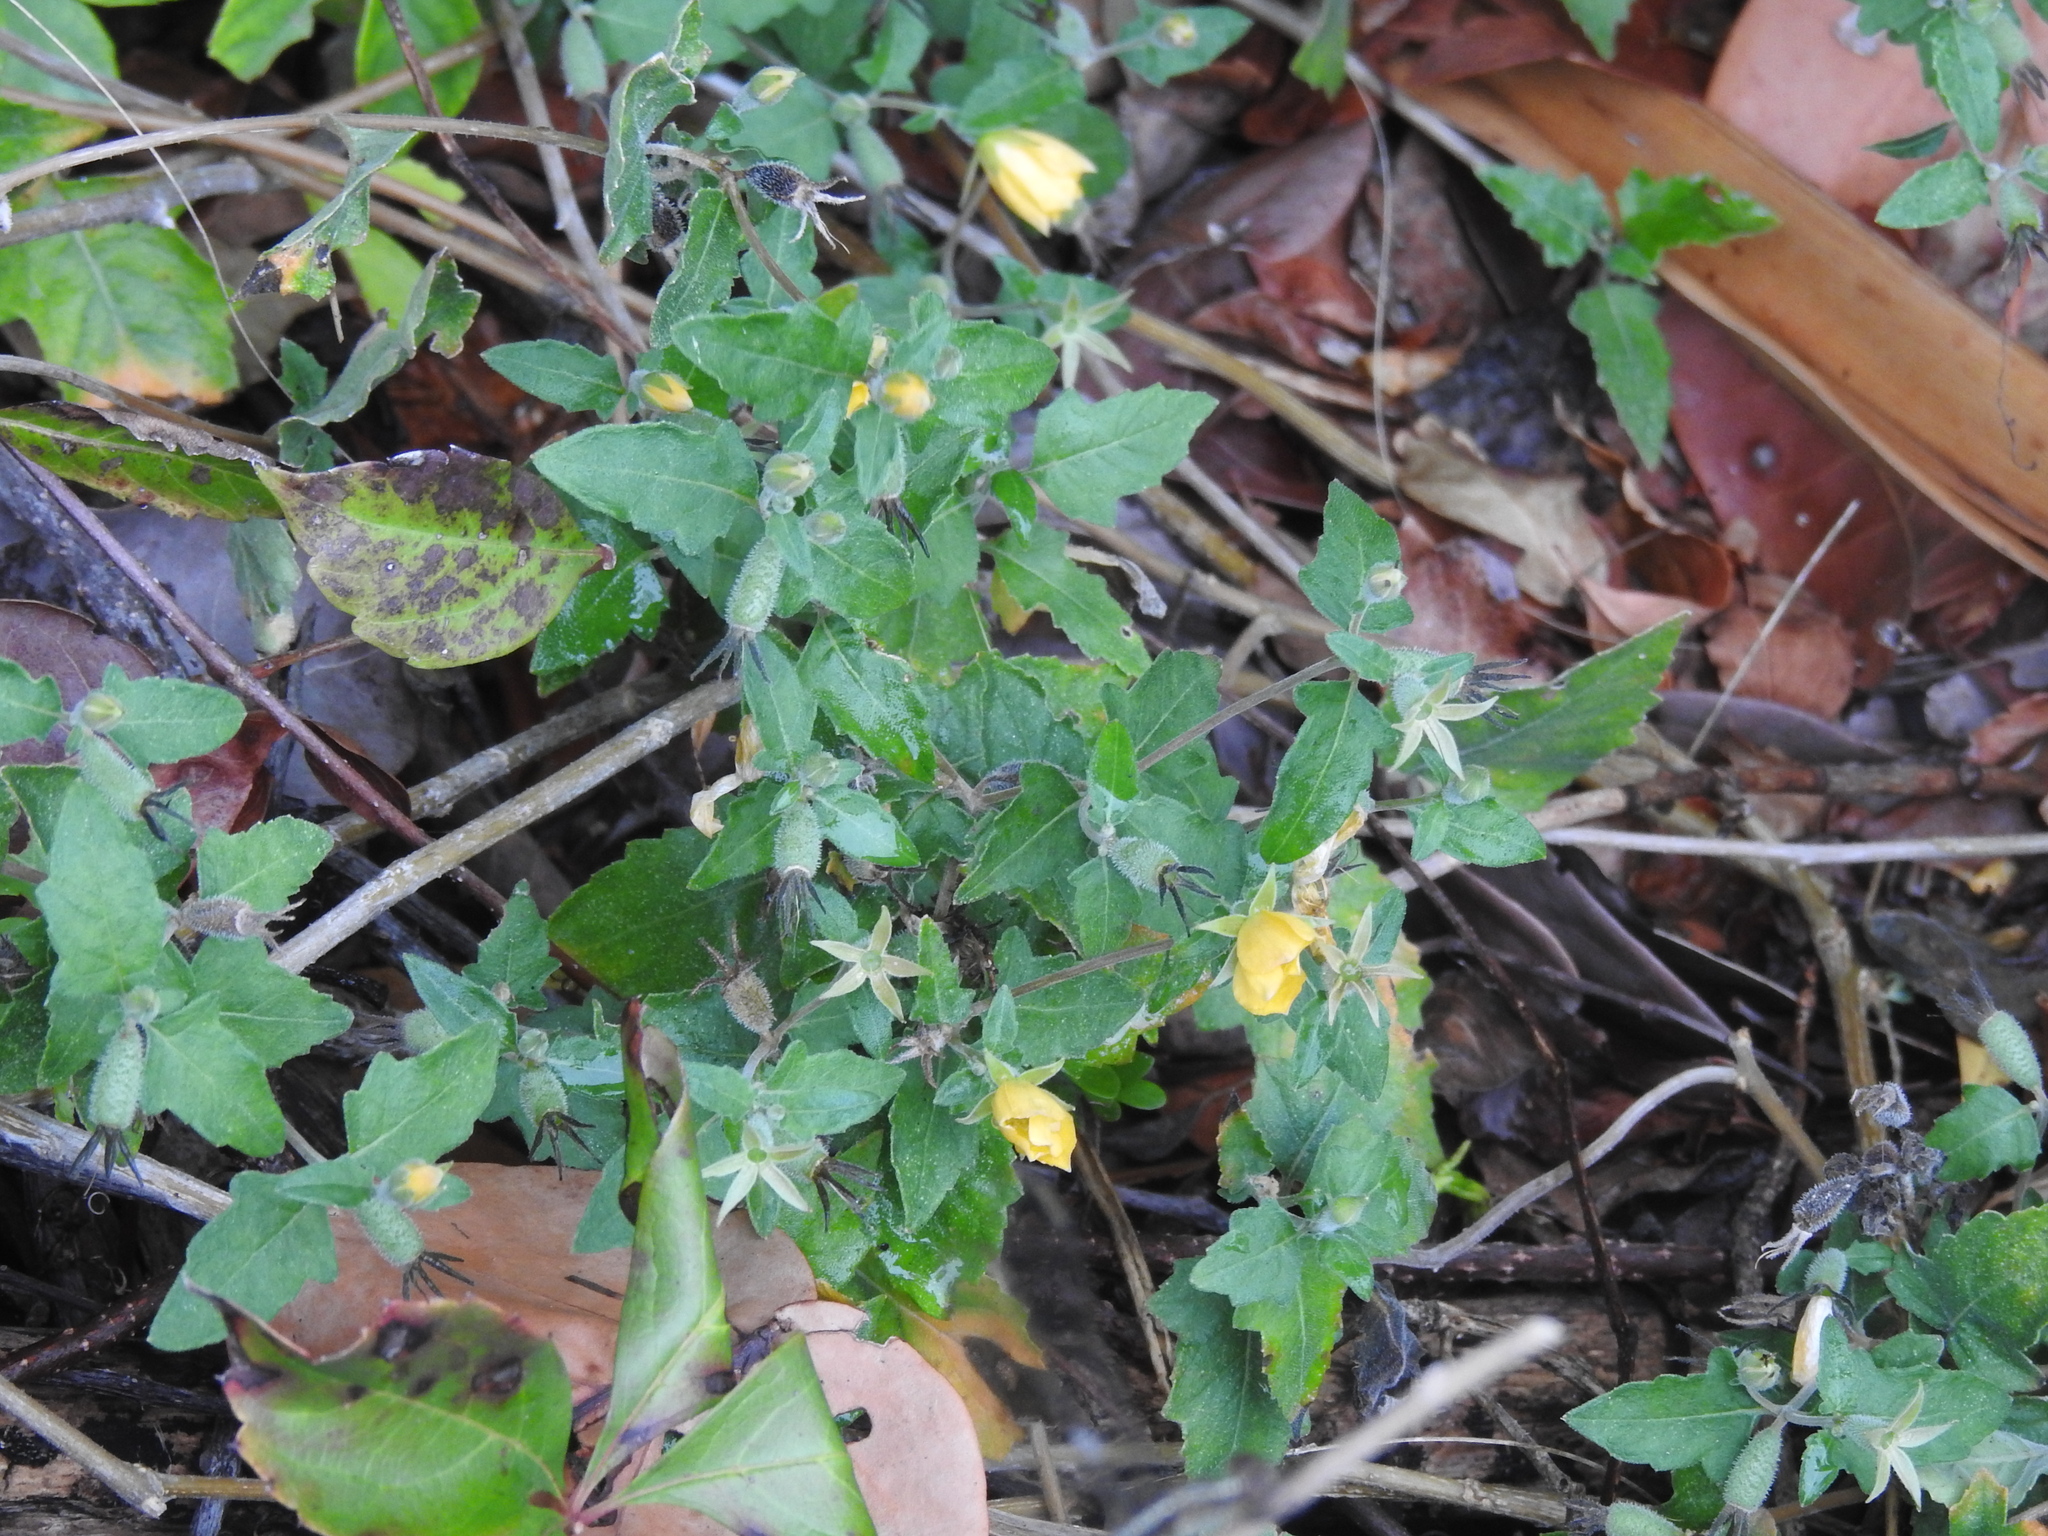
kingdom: Plantae
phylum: Tracheophyta
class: Magnoliopsida
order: Cornales
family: Loasaceae
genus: Mentzelia
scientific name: Mentzelia floridana
